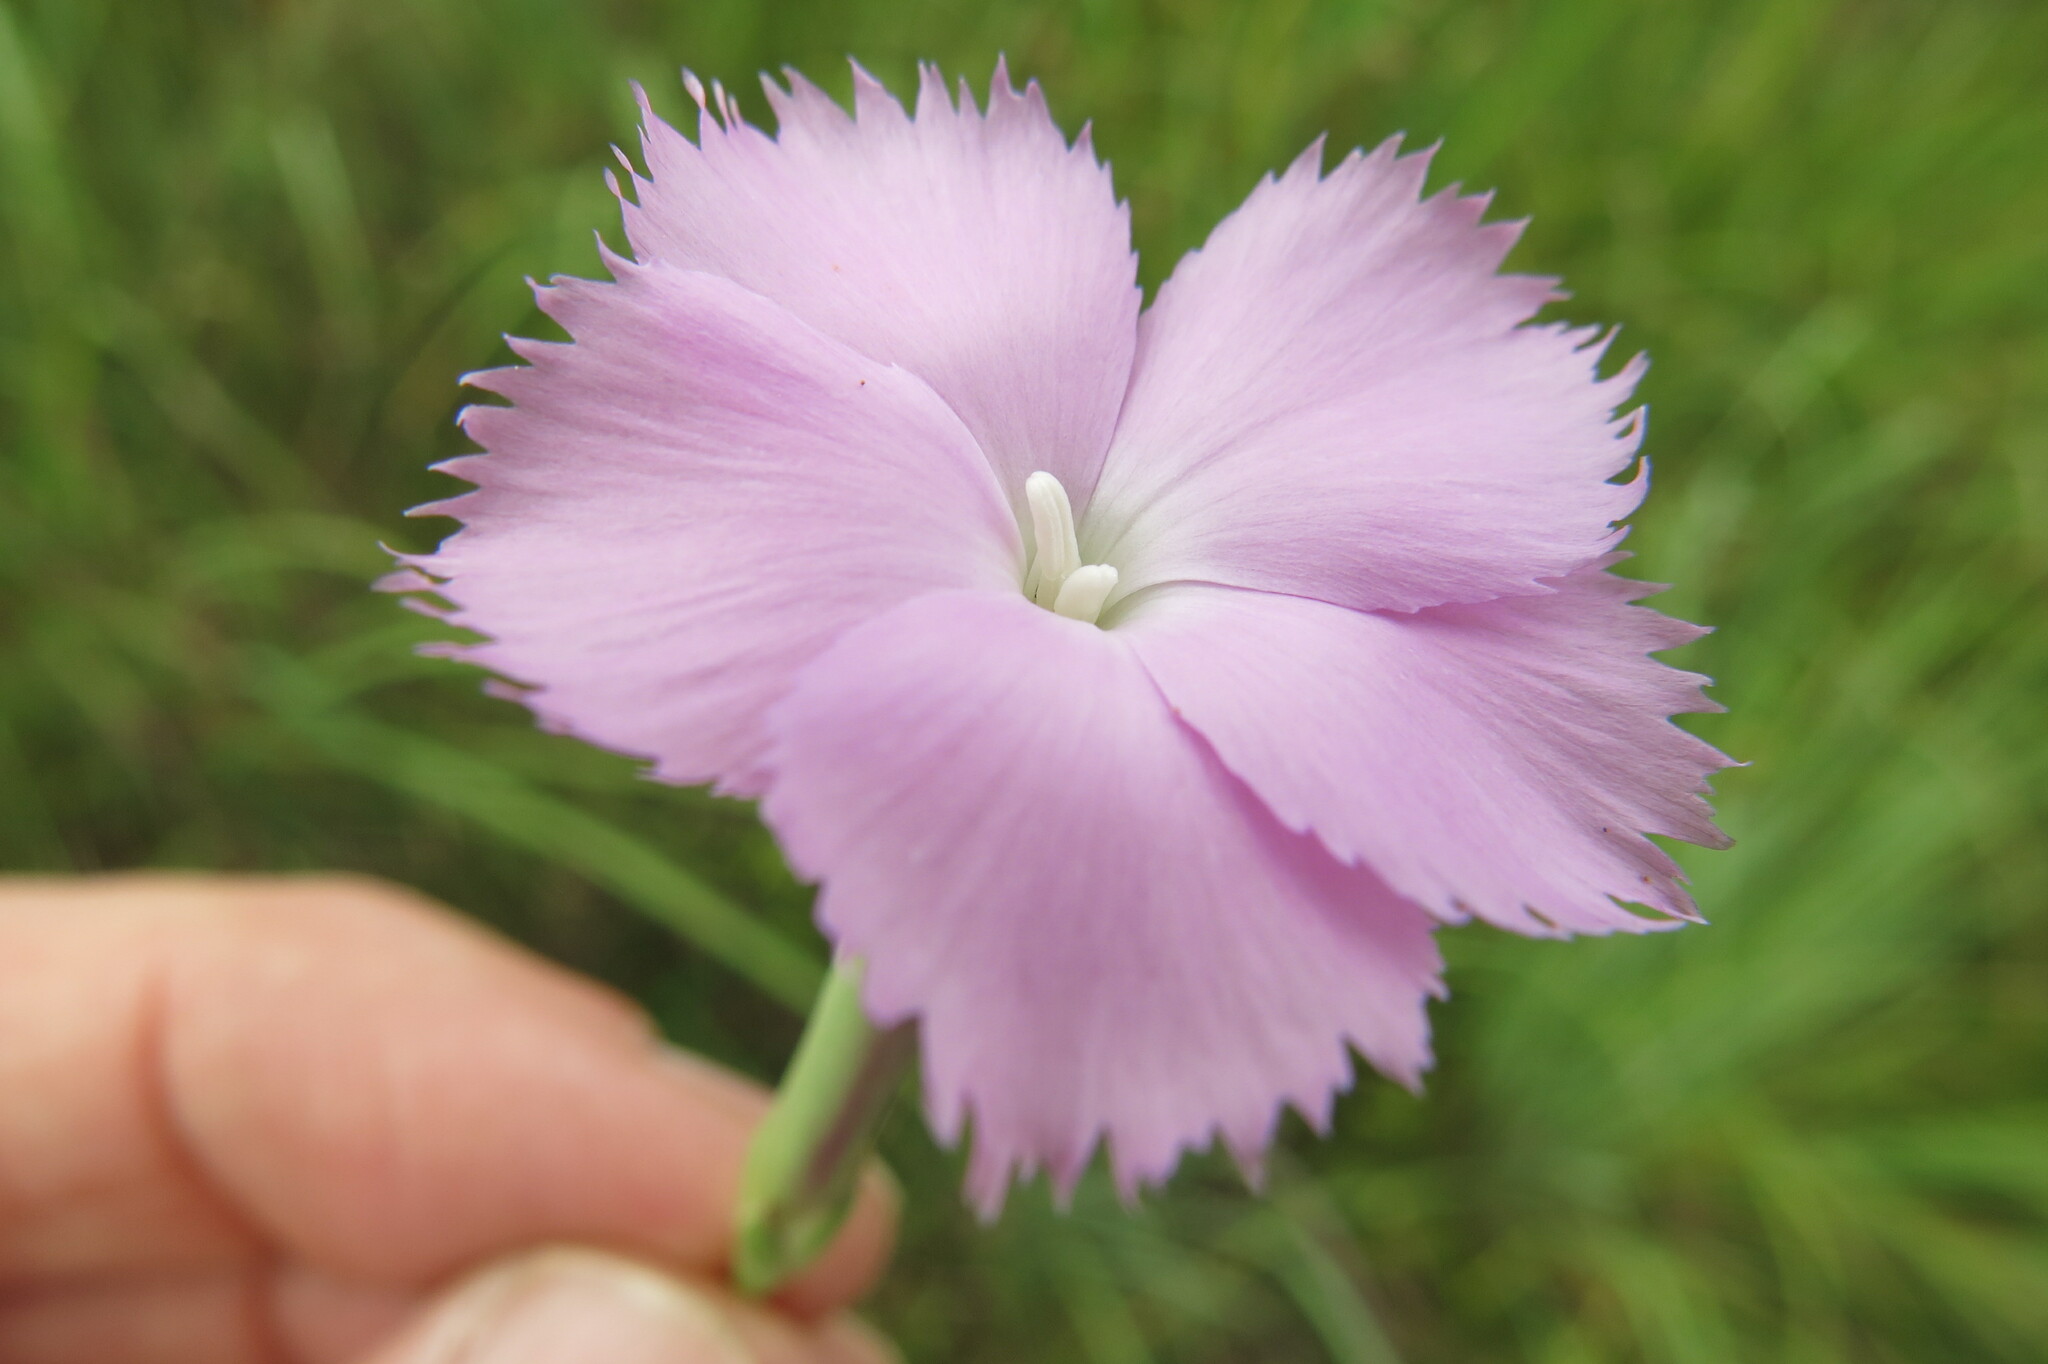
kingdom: Plantae
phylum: Tracheophyta
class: Magnoliopsida
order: Caryophyllales
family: Caryophyllaceae
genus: Dianthus
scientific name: Dianthus zeyheri
